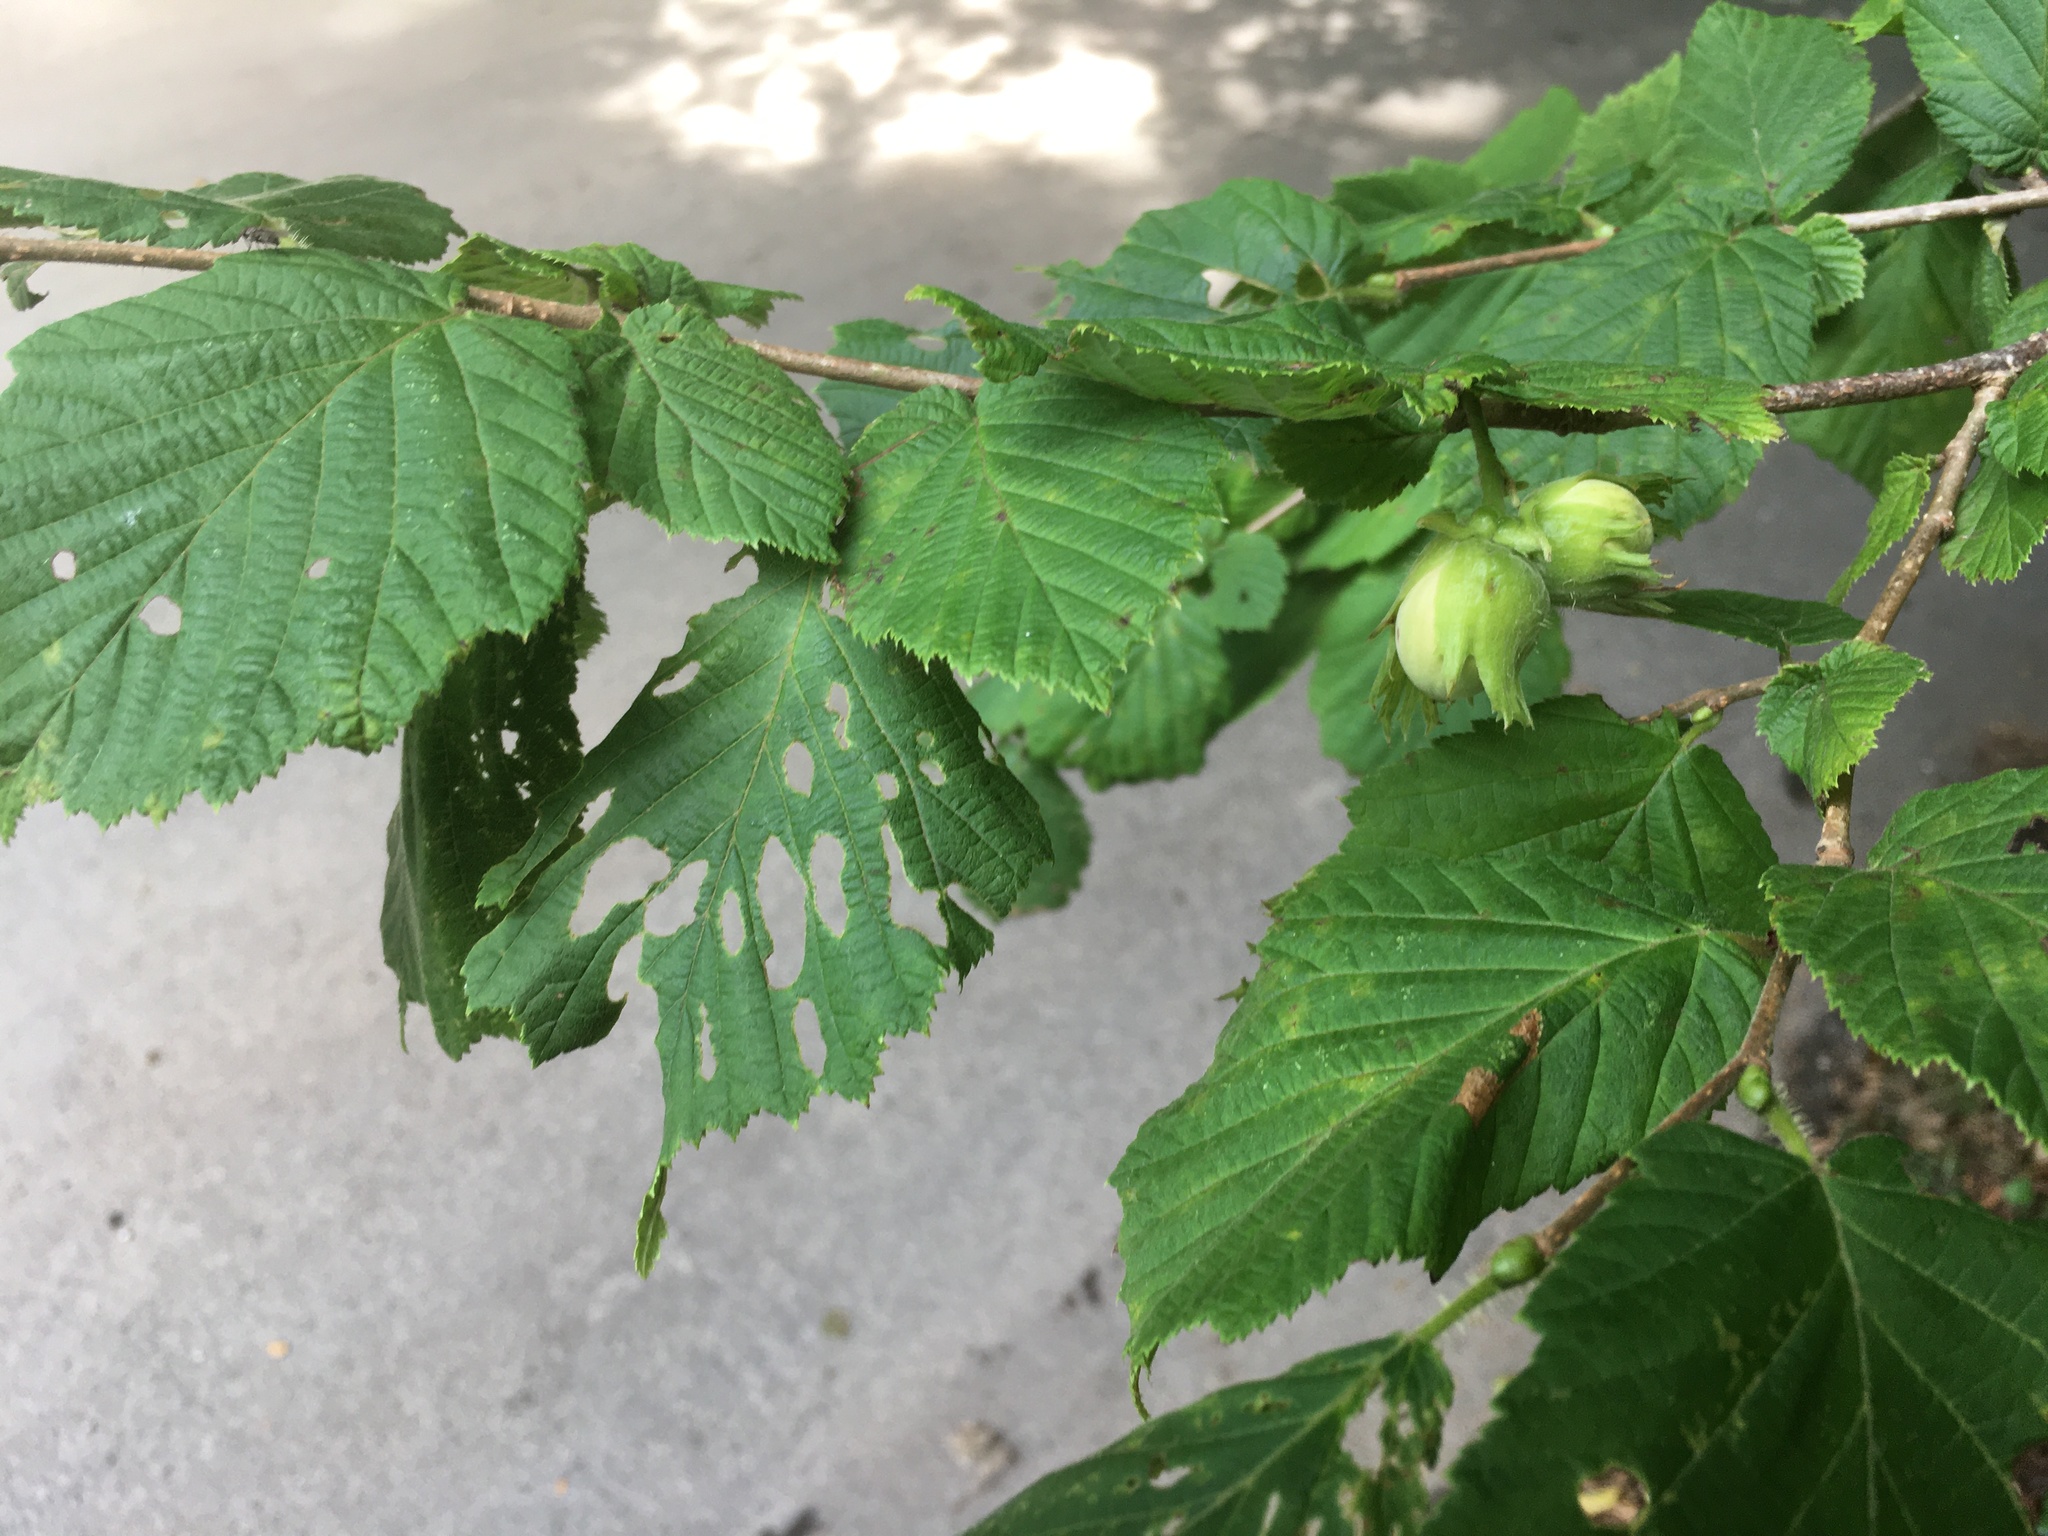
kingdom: Plantae
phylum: Tracheophyta
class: Magnoliopsida
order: Fagales
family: Betulaceae
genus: Corylus
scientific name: Corylus avellana
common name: European hazel
